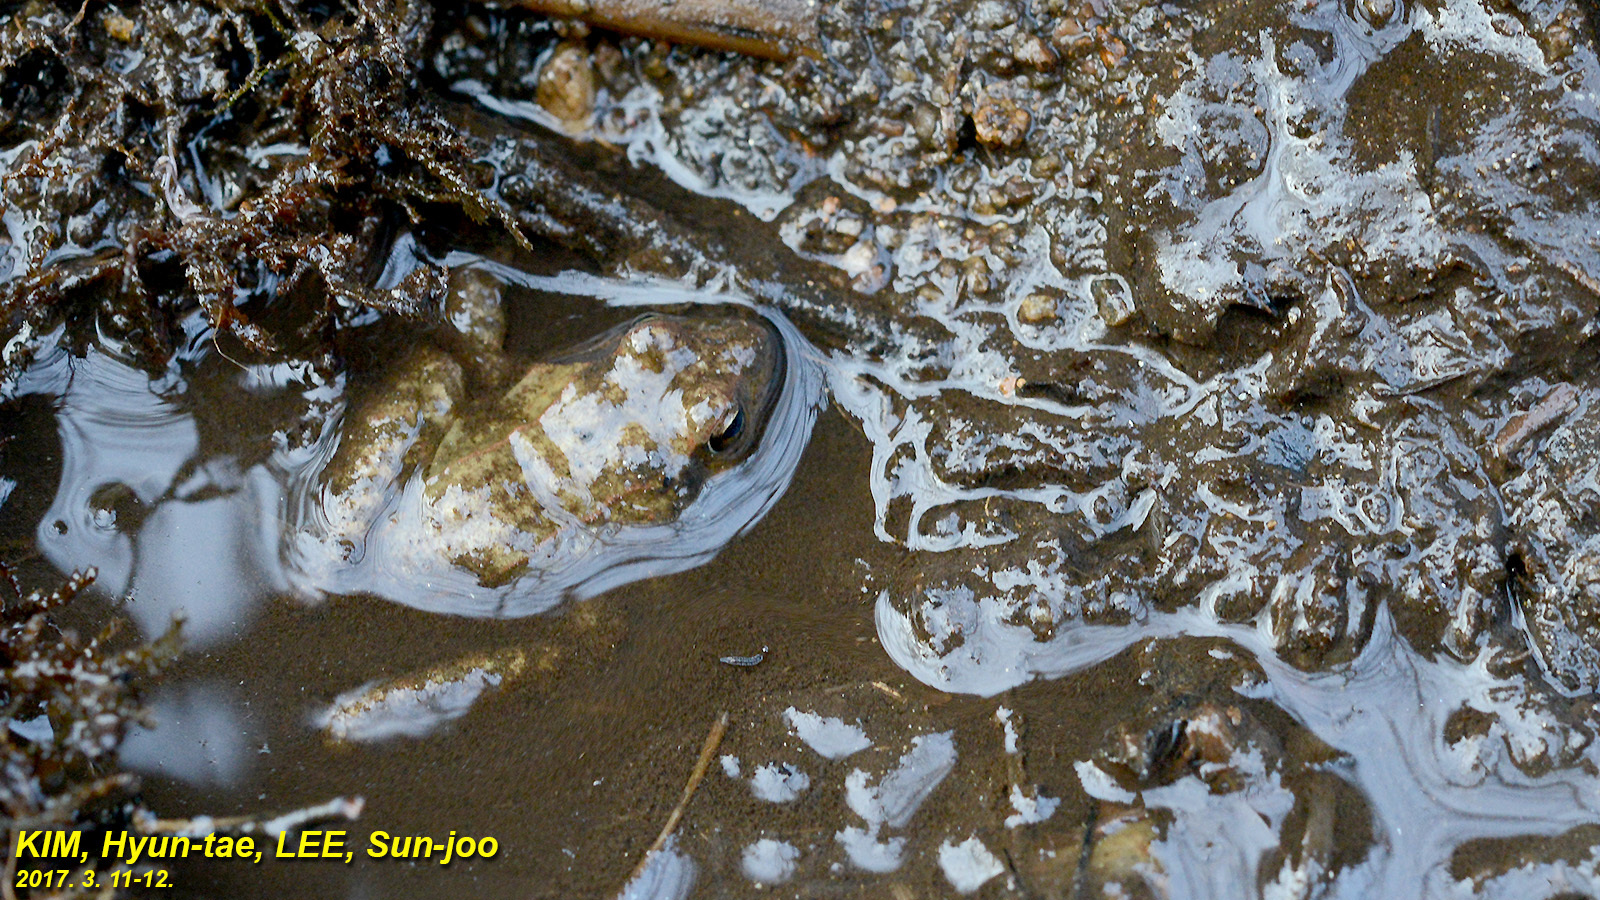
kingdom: Animalia
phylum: Chordata
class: Amphibia
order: Anura
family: Ranidae
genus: Rana
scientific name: Rana uenoi
